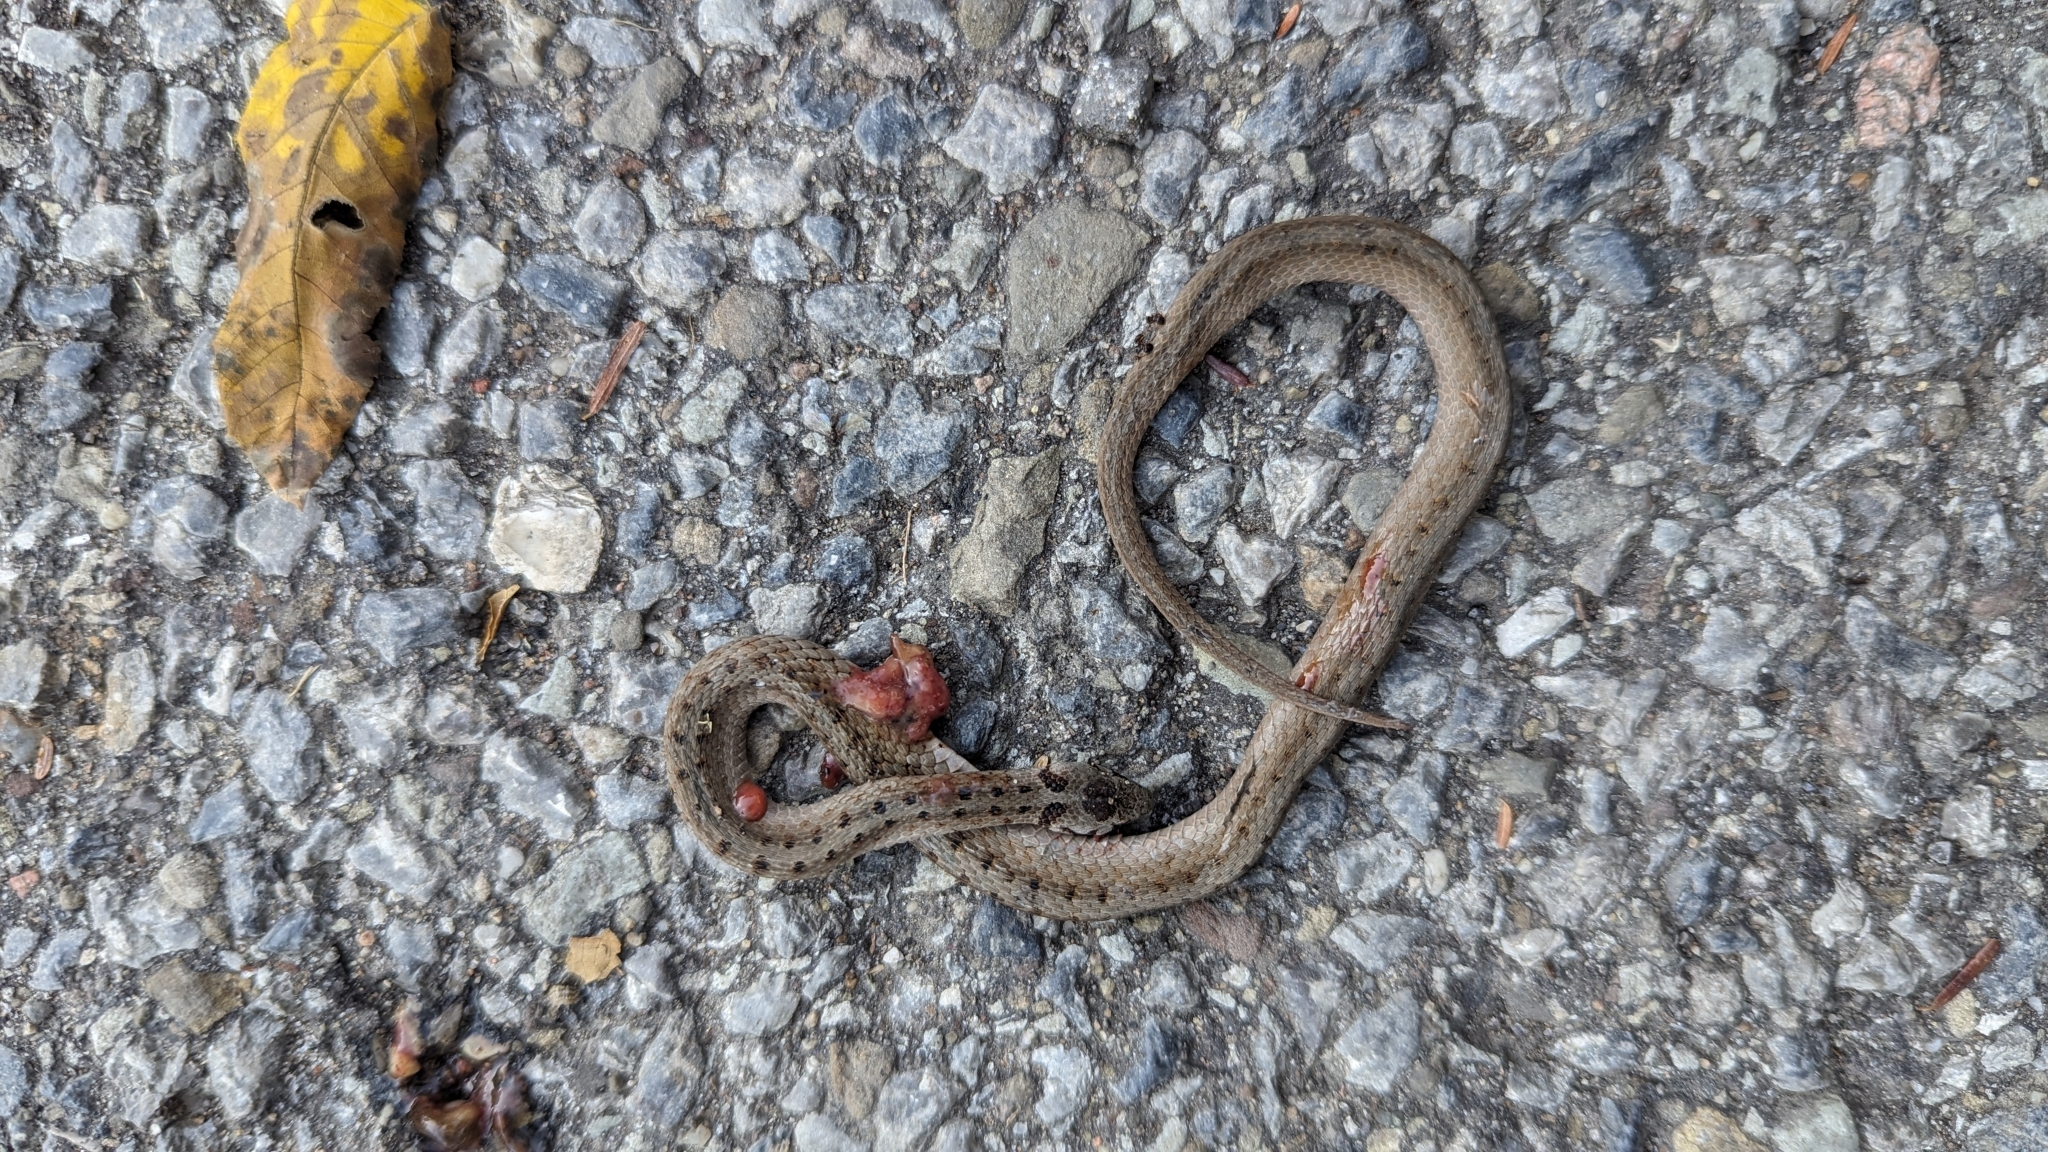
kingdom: Animalia
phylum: Chordata
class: Squamata
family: Colubridae
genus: Storeria
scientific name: Storeria dekayi
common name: (dekay’s) brown snake
